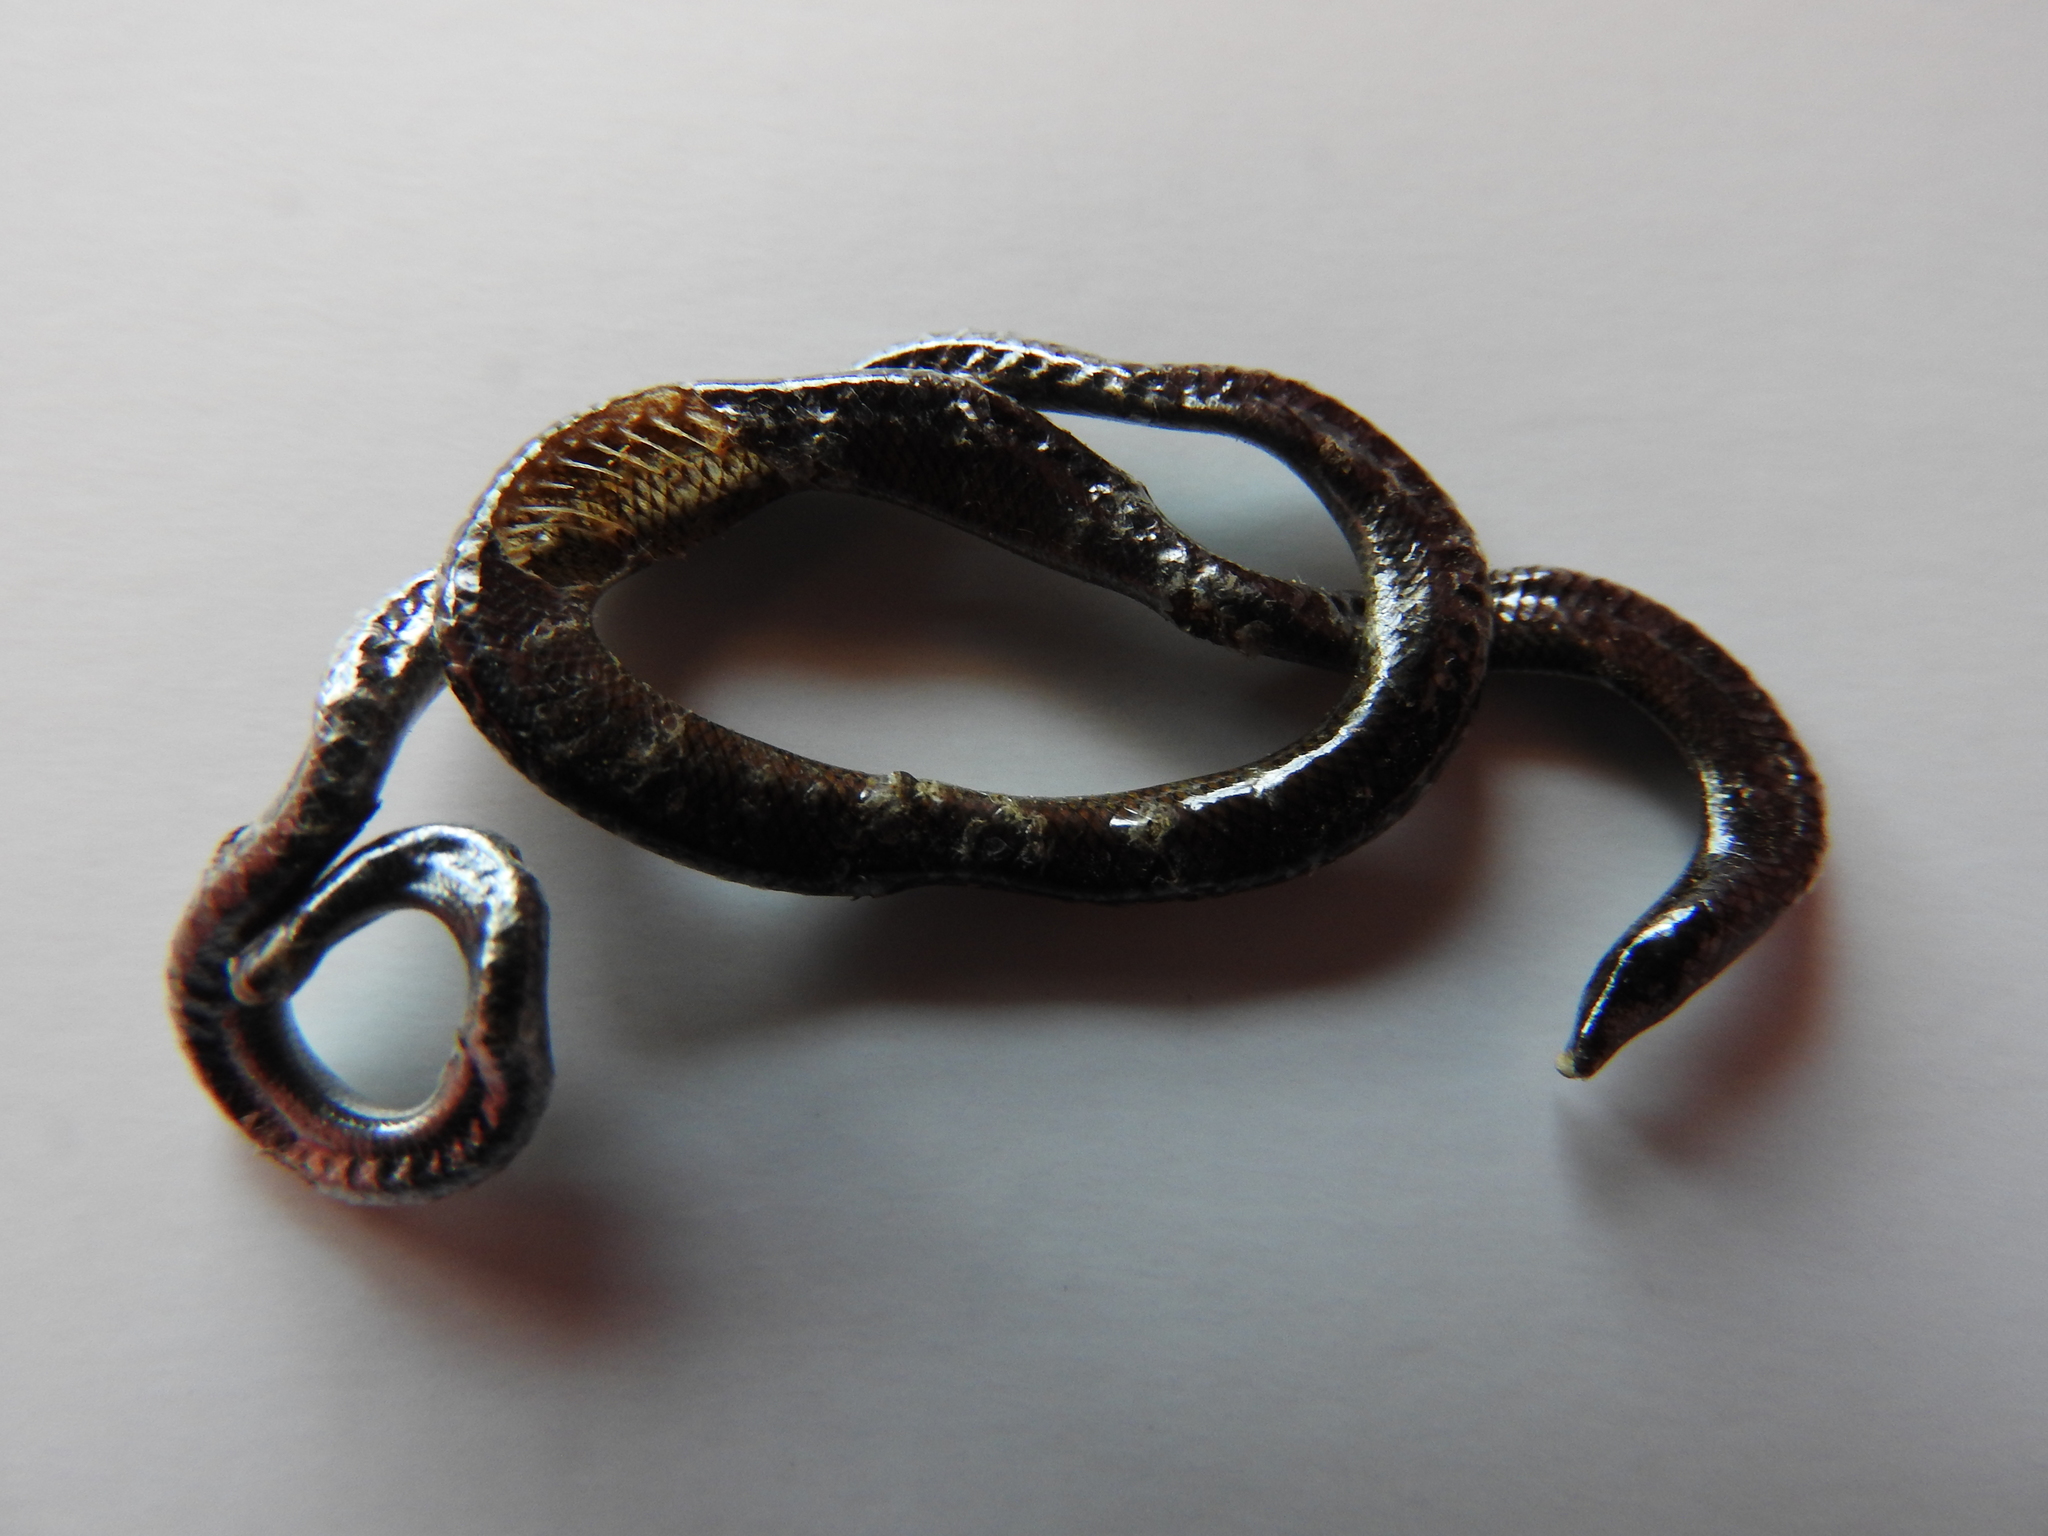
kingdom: Animalia
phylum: Chordata
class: Squamata
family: Typhlopidae
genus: Indotyphlops
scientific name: Indotyphlops braminus
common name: Brahminy blindsnake
